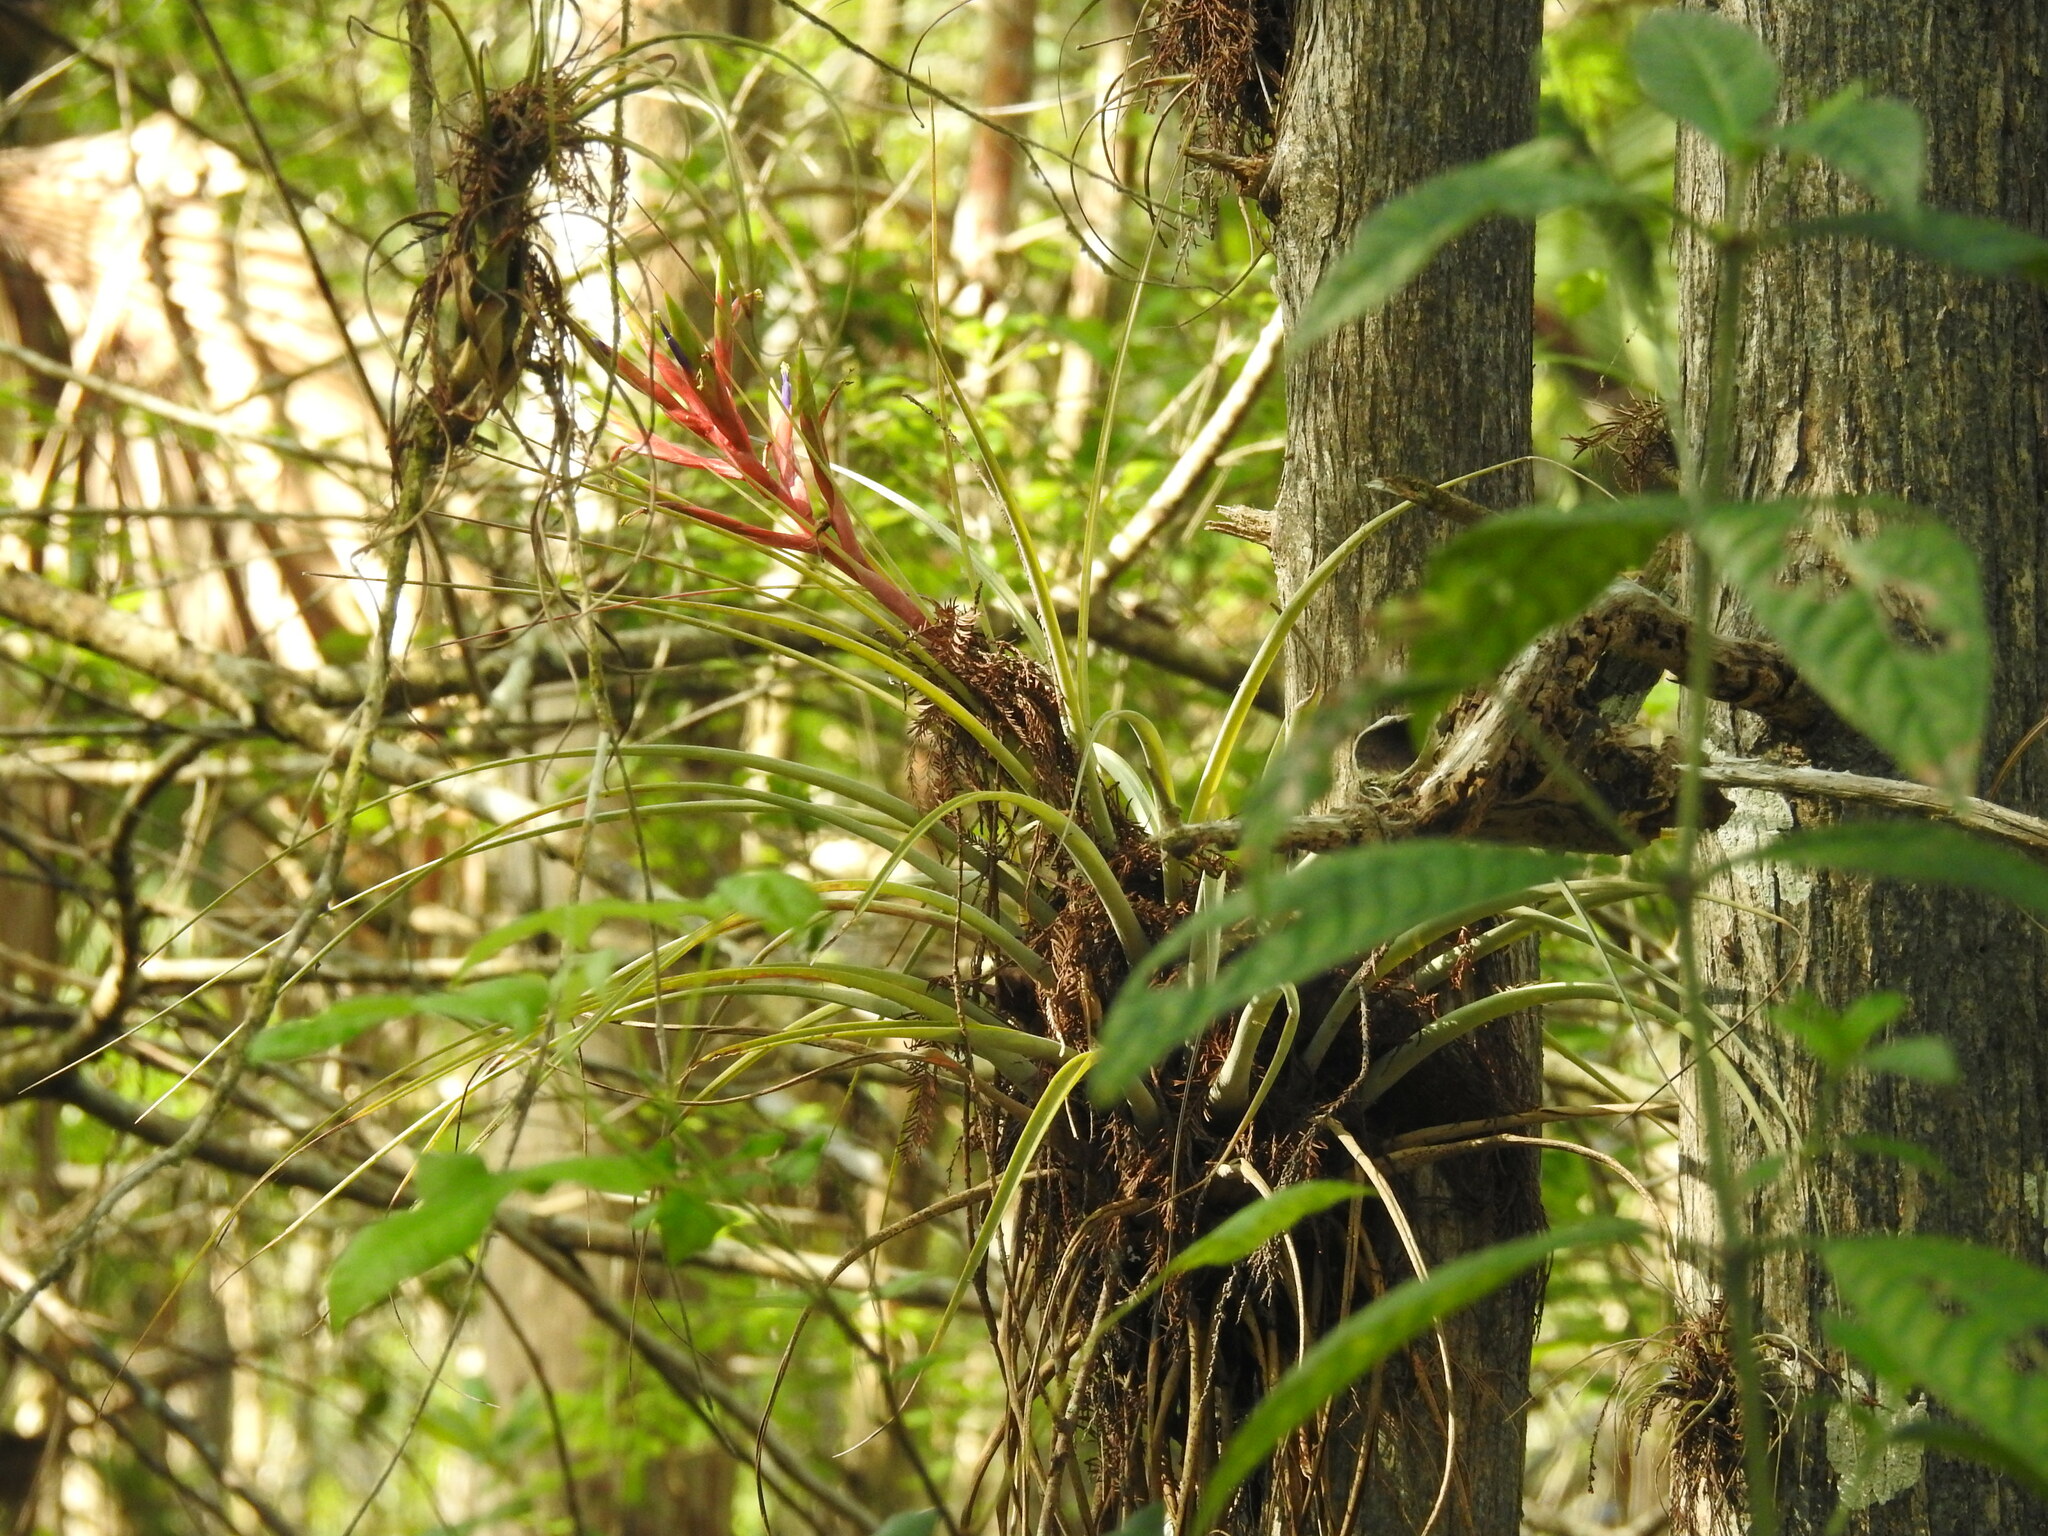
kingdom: Plantae
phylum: Tracheophyta
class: Liliopsida
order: Poales
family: Bromeliaceae
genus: Tillandsia
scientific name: Tillandsia fasciculata
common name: Giant airplant
